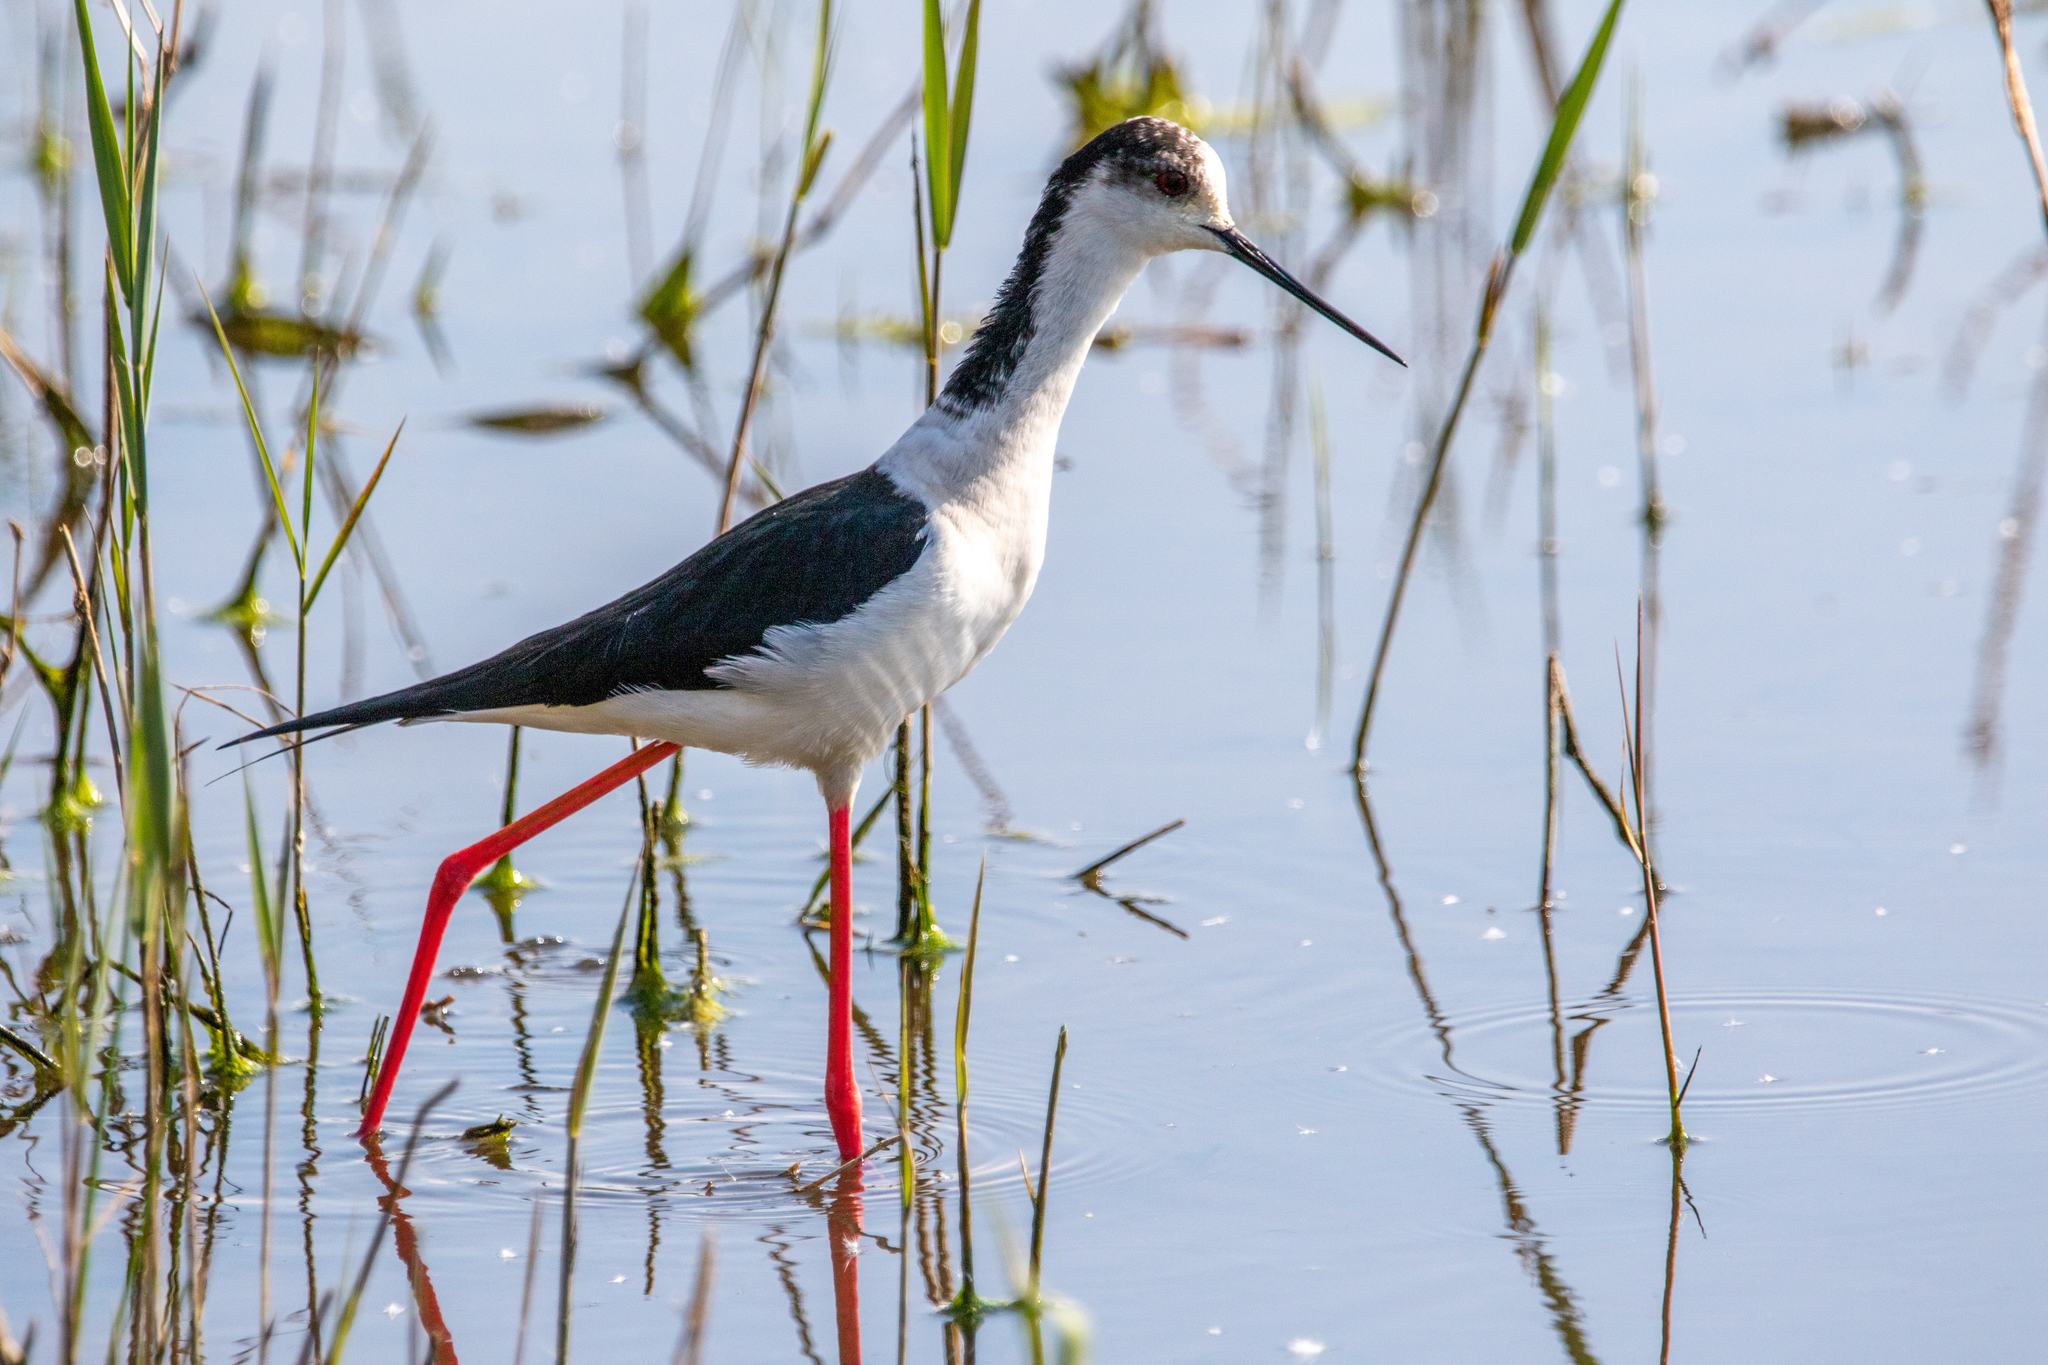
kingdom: Animalia
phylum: Chordata
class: Aves
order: Charadriiformes
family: Recurvirostridae
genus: Himantopus
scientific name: Himantopus himantopus
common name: Black-winged stilt
